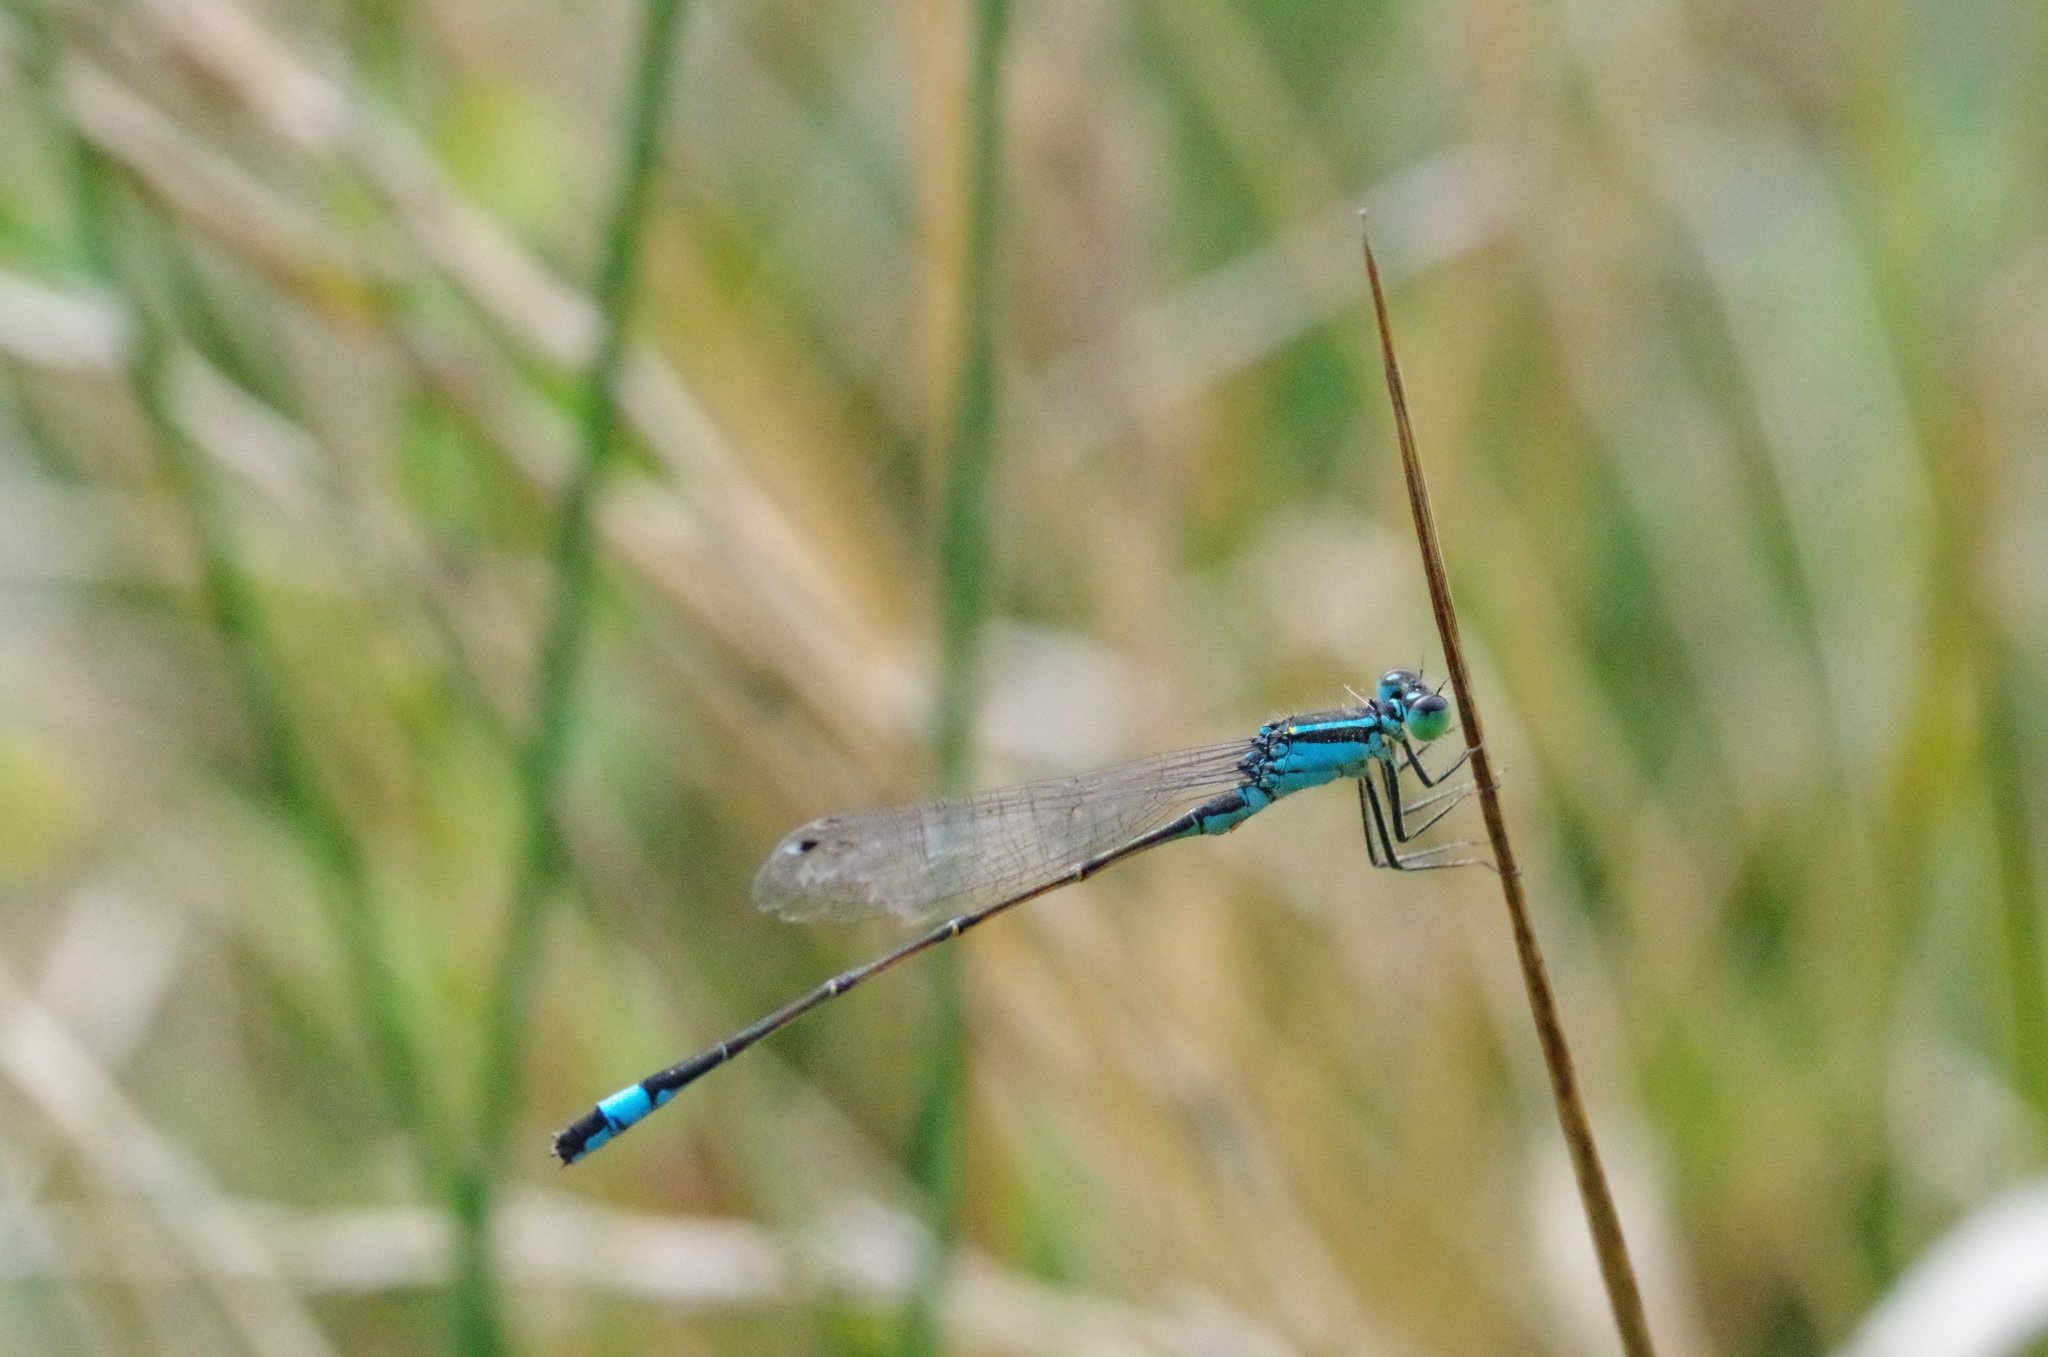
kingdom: Animalia
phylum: Arthropoda
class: Insecta
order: Odonata
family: Coenagrionidae
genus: Ischnura
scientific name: Ischnura elegans
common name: Blue-tailed damselfly
